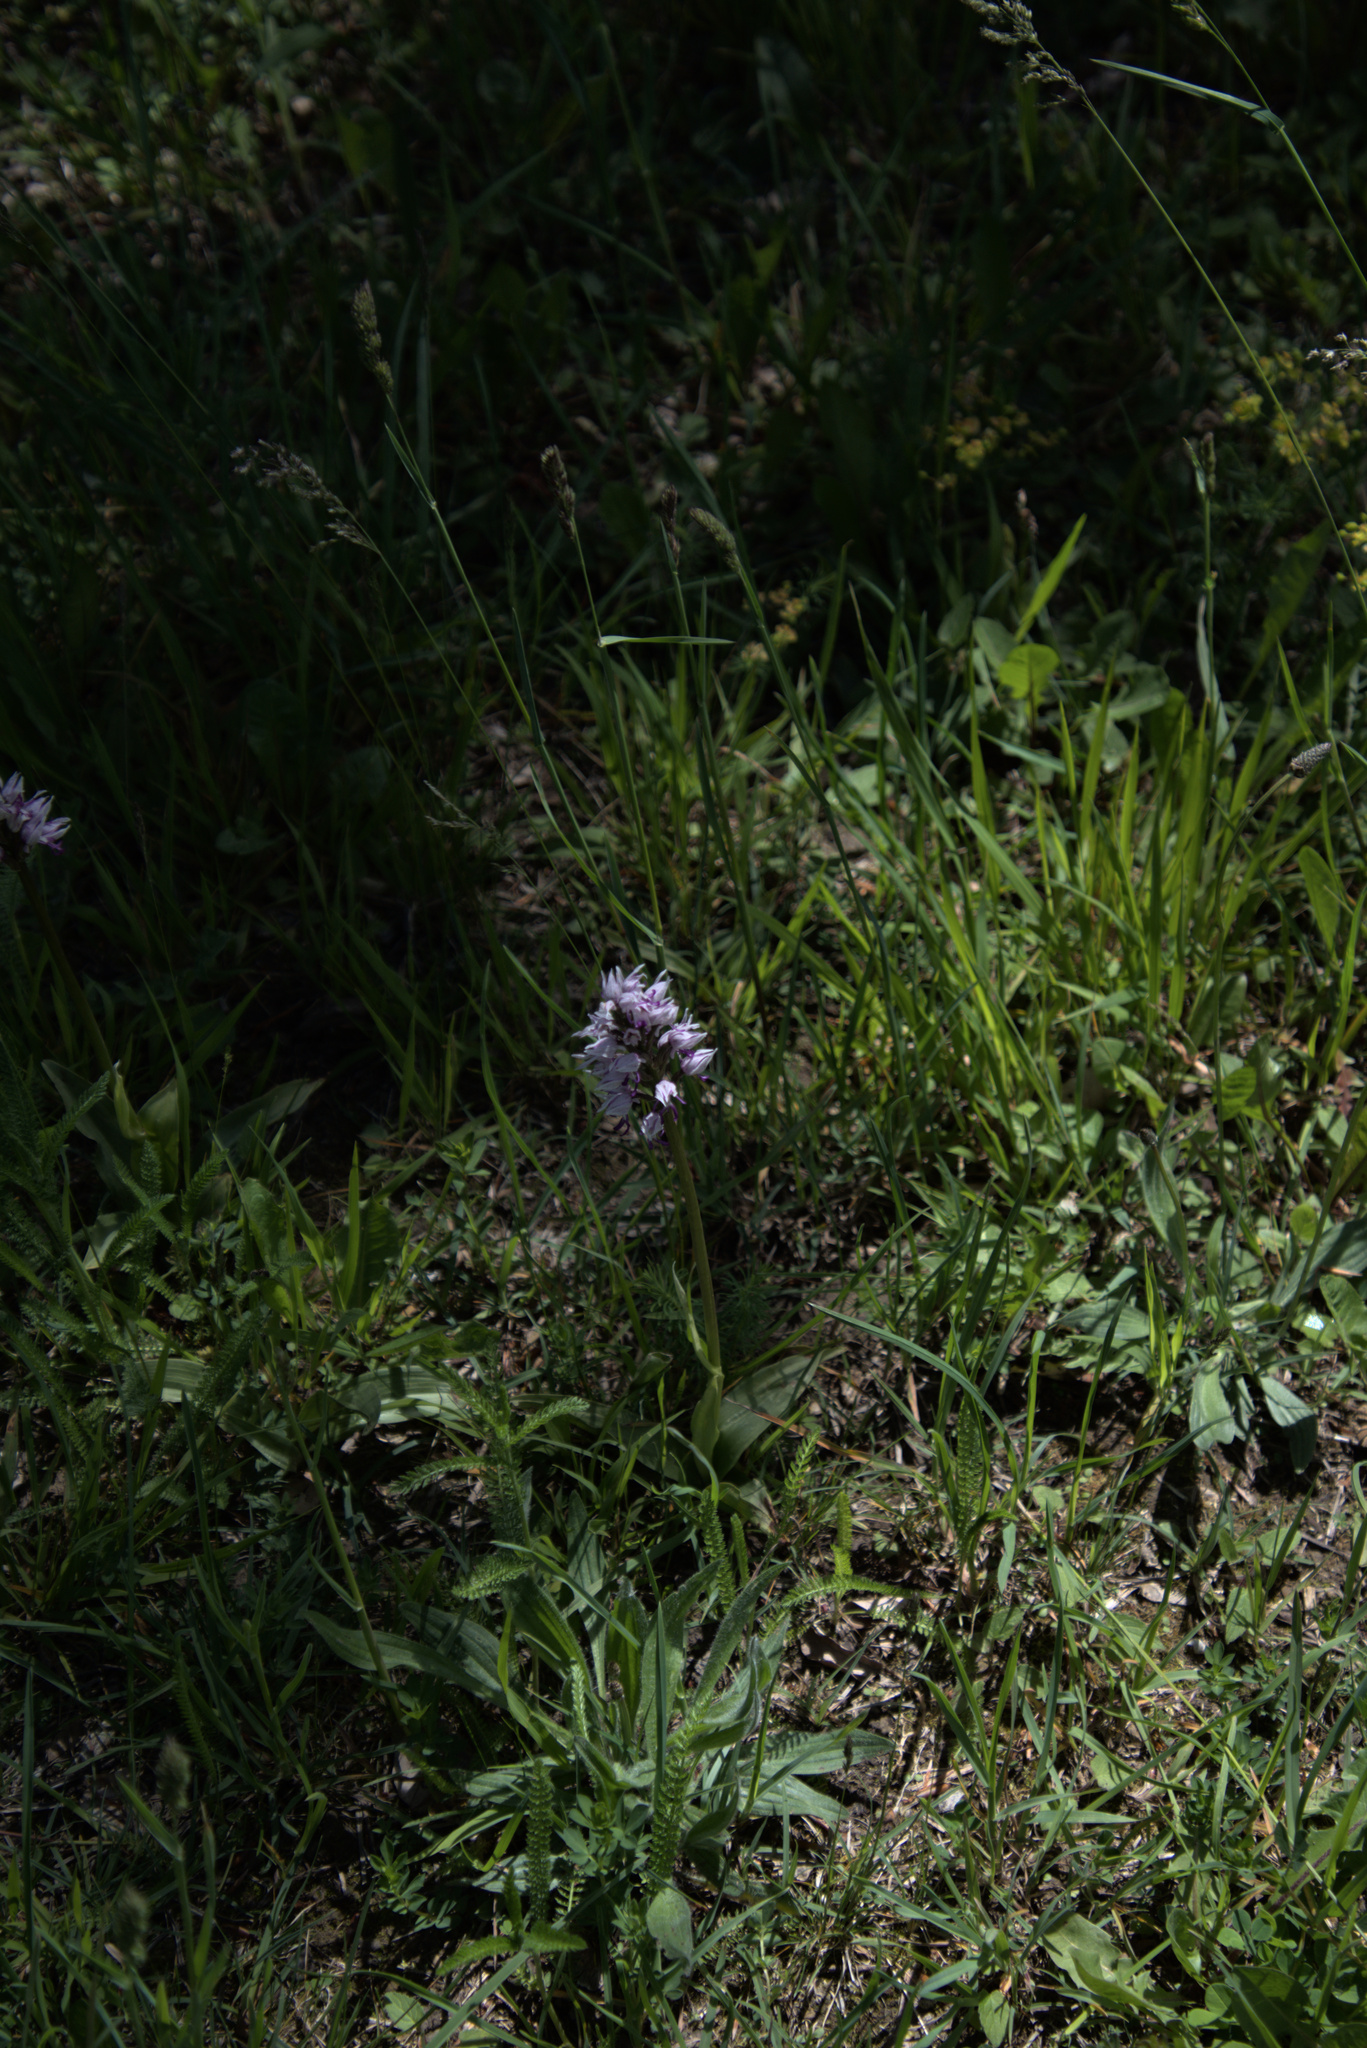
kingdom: Plantae
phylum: Tracheophyta
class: Liliopsida
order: Asparagales
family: Orchidaceae
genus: Orchis
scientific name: Orchis simia
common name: Monkey orchid
